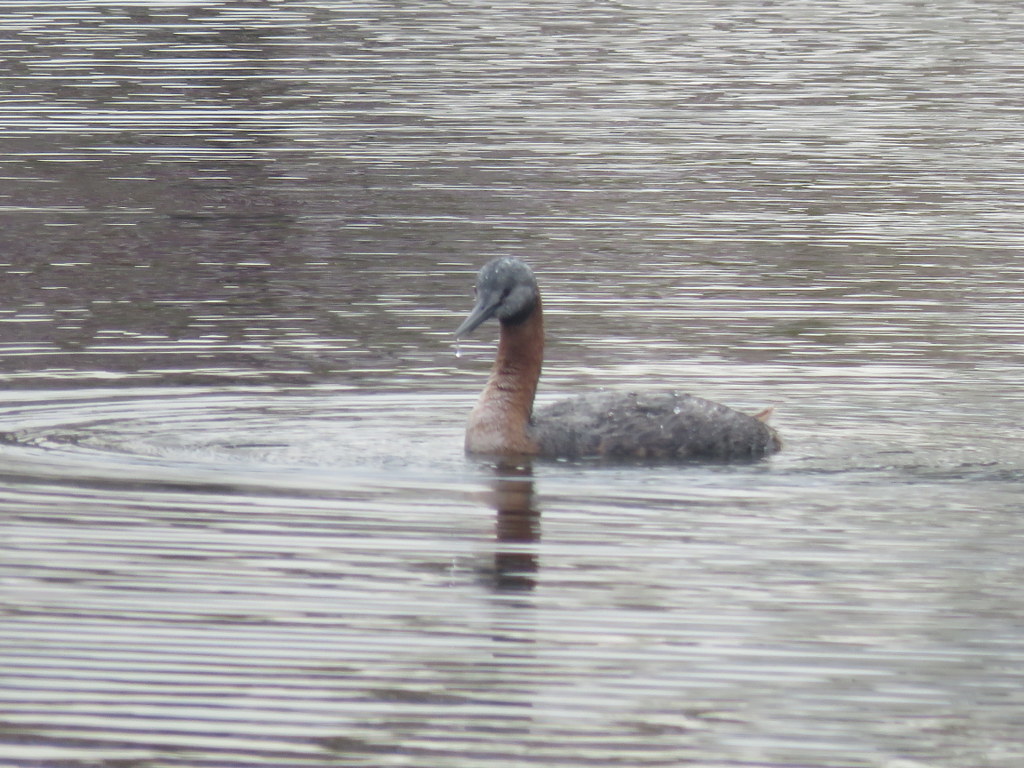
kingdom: Animalia
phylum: Chordata
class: Aves
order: Podicipediformes
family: Podicipedidae
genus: Podiceps
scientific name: Podiceps major
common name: Great grebe
